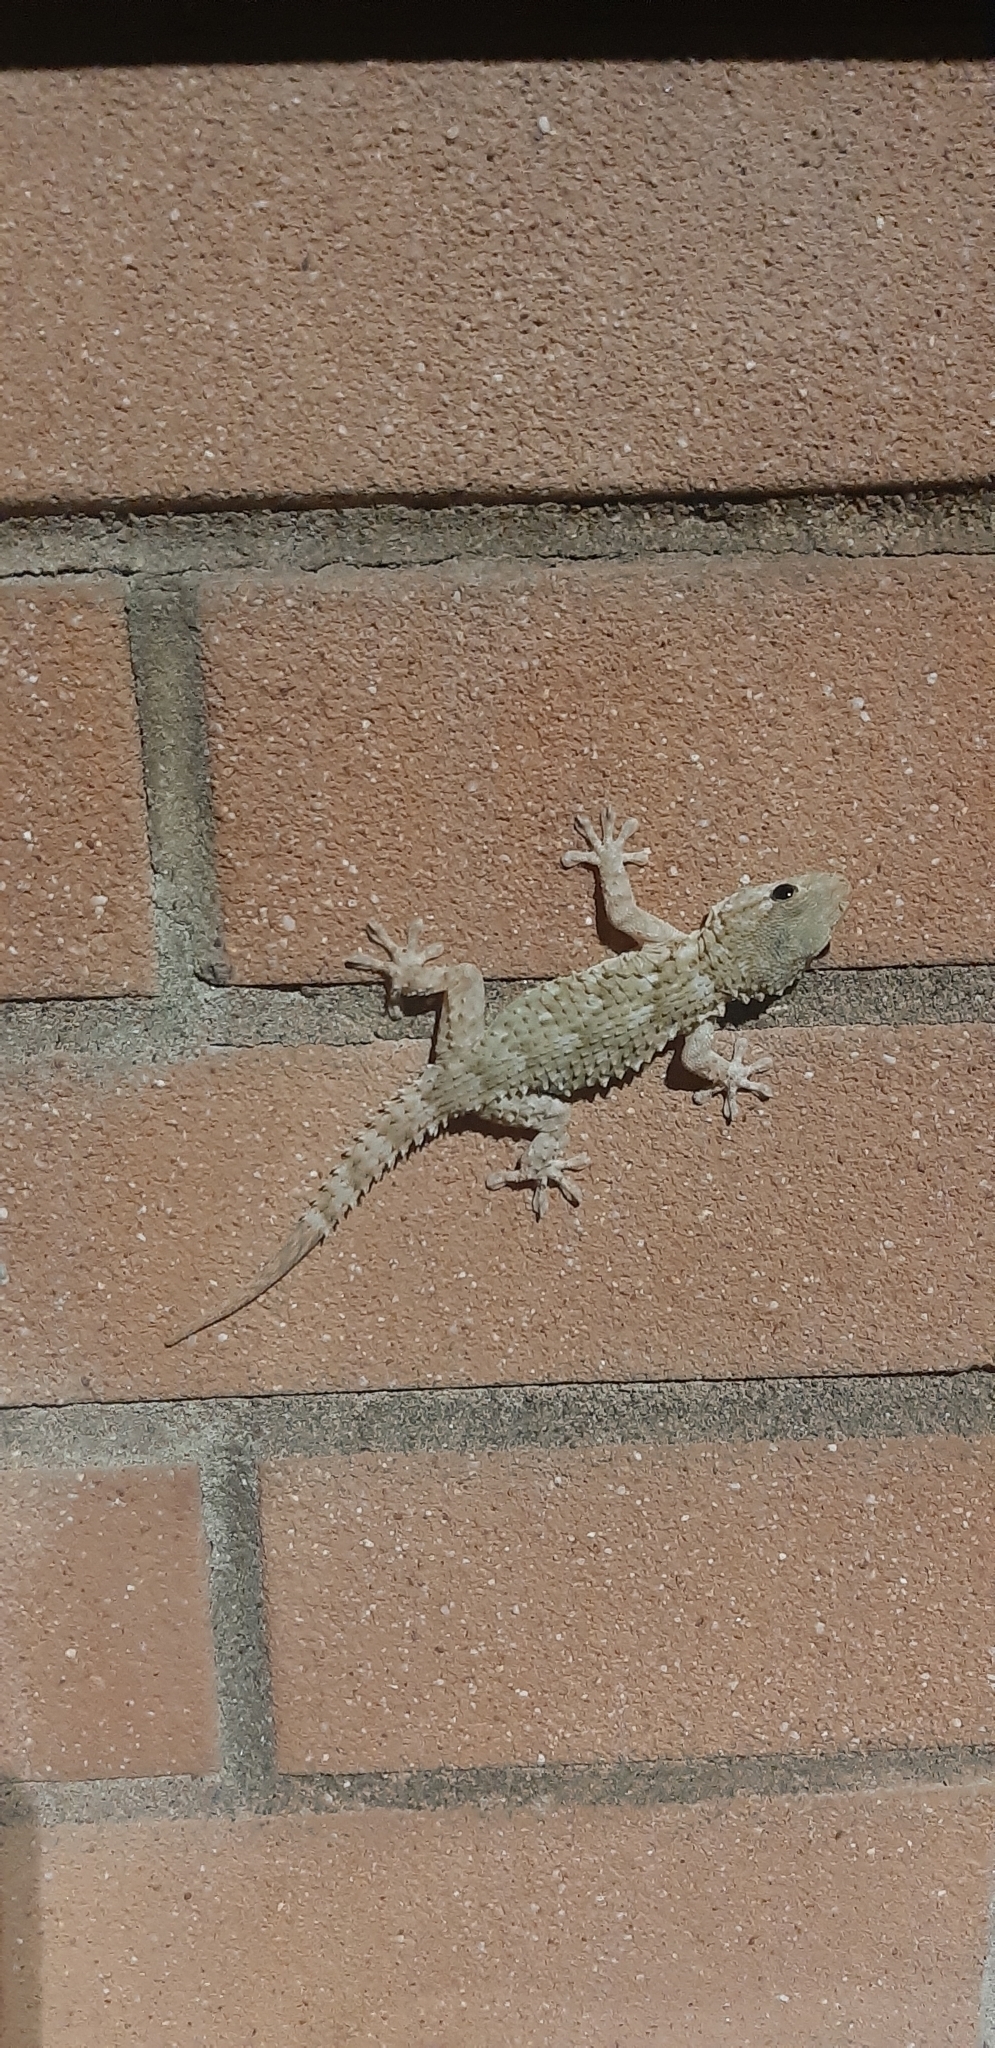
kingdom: Animalia
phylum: Chordata
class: Squamata
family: Phyllodactylidae
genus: Tarentola
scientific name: Tarentola mauritanica
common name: Moorish gecko
